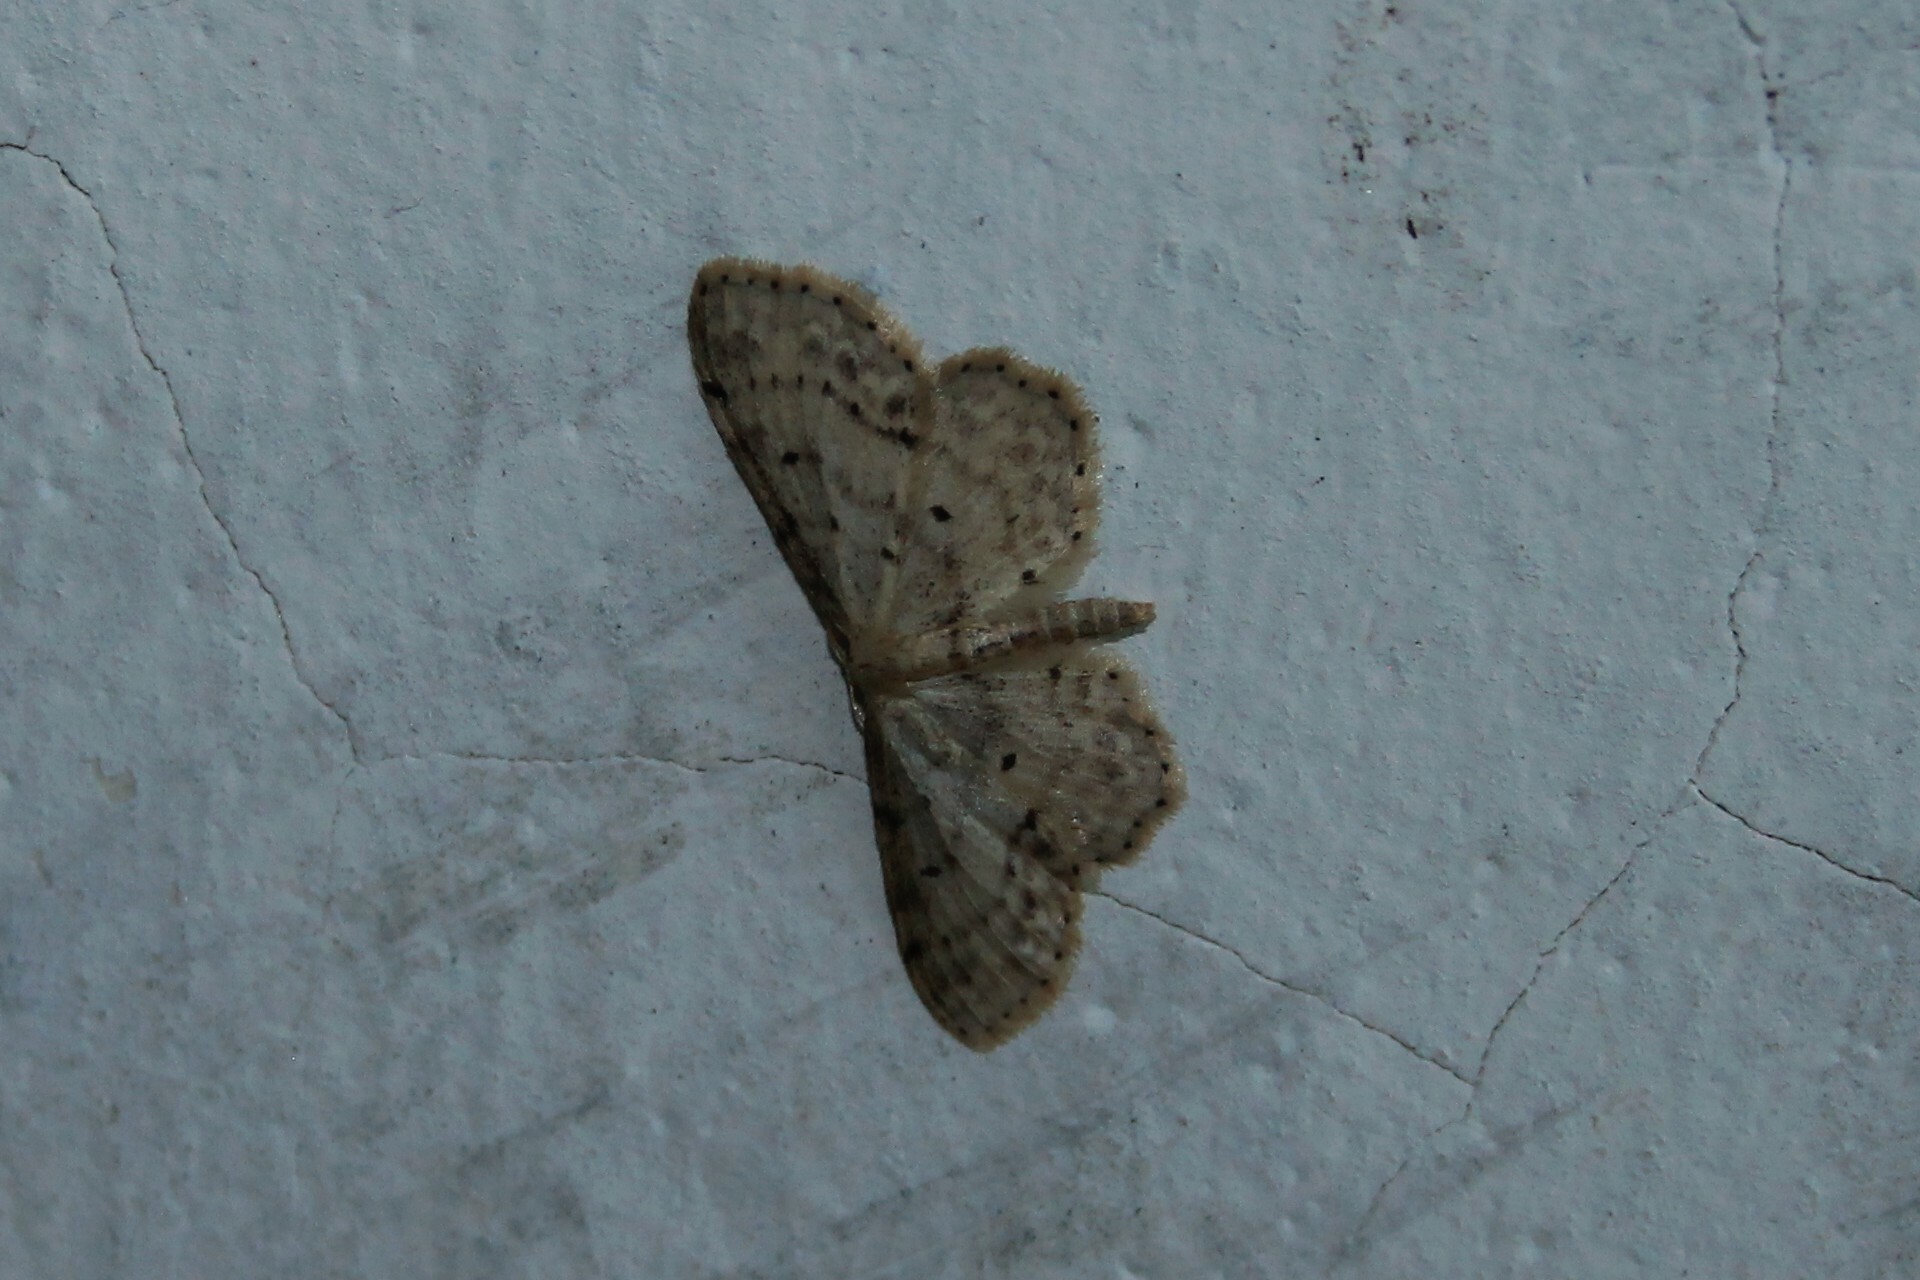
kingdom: Animalia
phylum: Arthropoda
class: Insecta
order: Lepidoptera
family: Geometridae
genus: Idaea
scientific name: Idaea dimidiata
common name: Single-dotted wave
